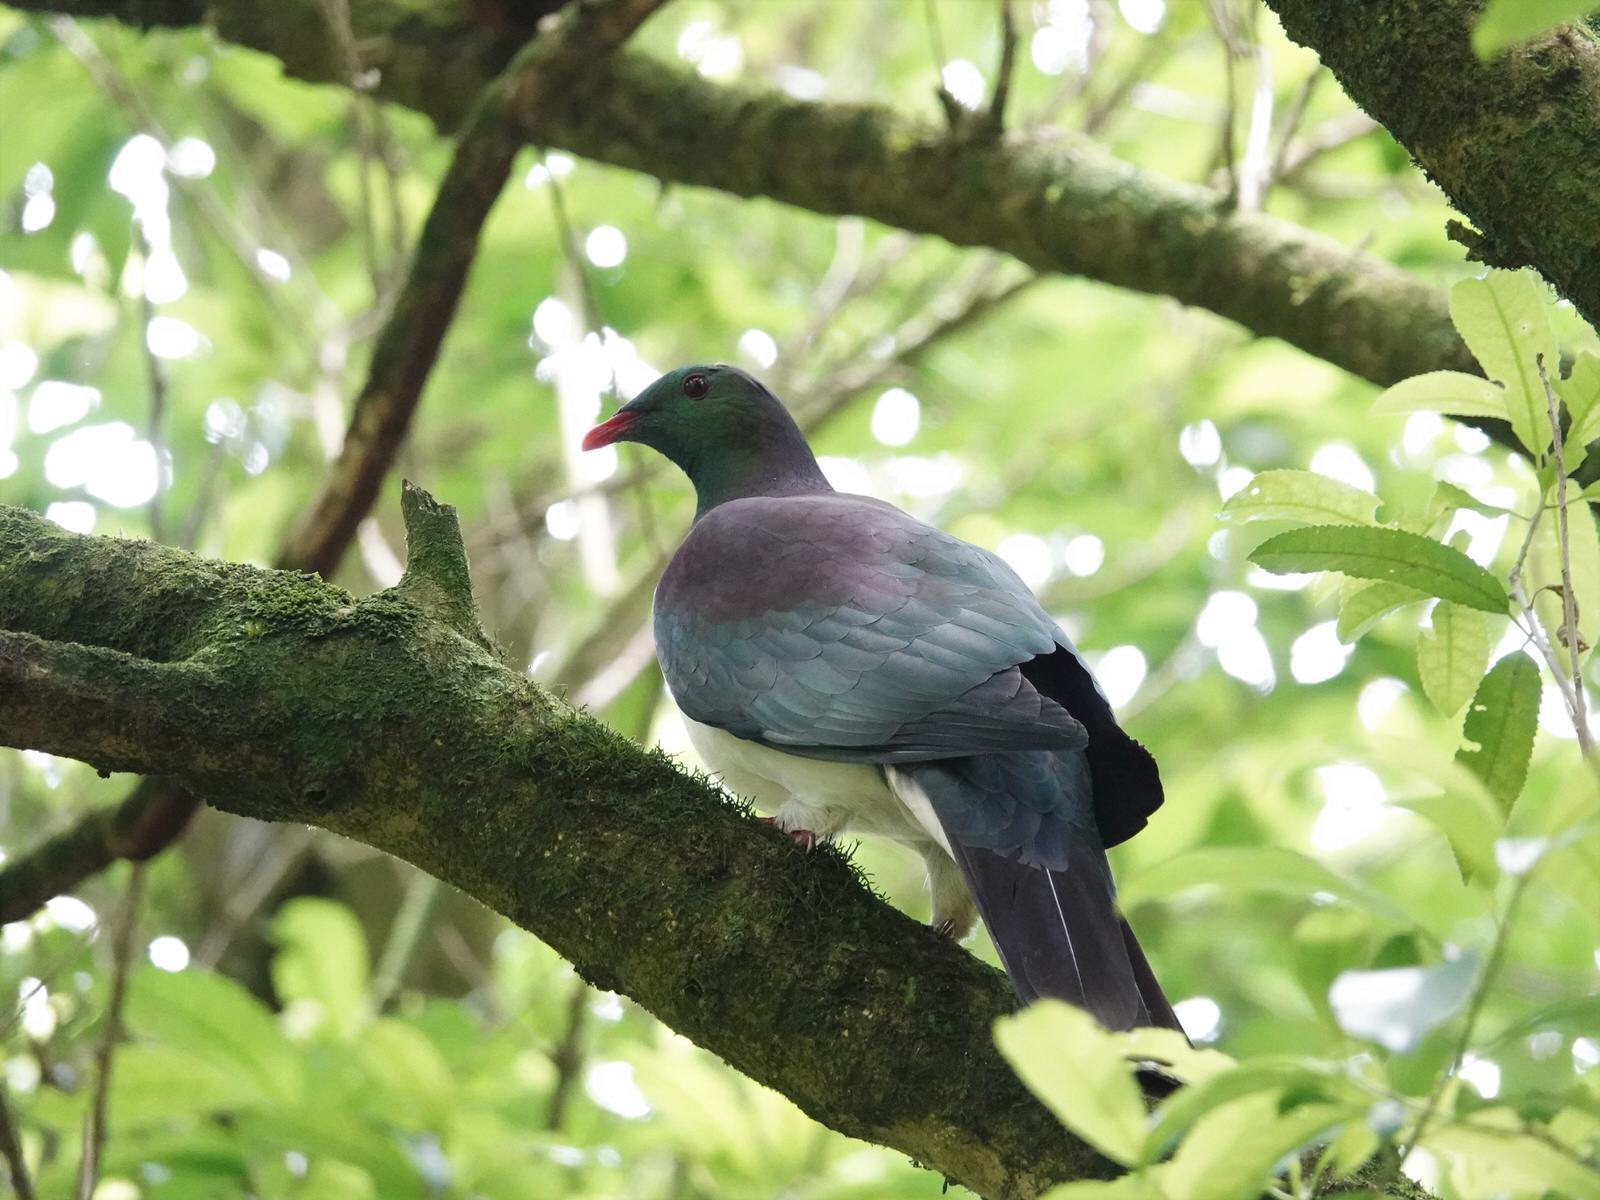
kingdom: Animalia
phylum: Chordata
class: Aves
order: Columbiformes
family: Columbidae
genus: Hemiphaga
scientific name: Hemiphaga novaeseelandiae
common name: New zealand pigeon
